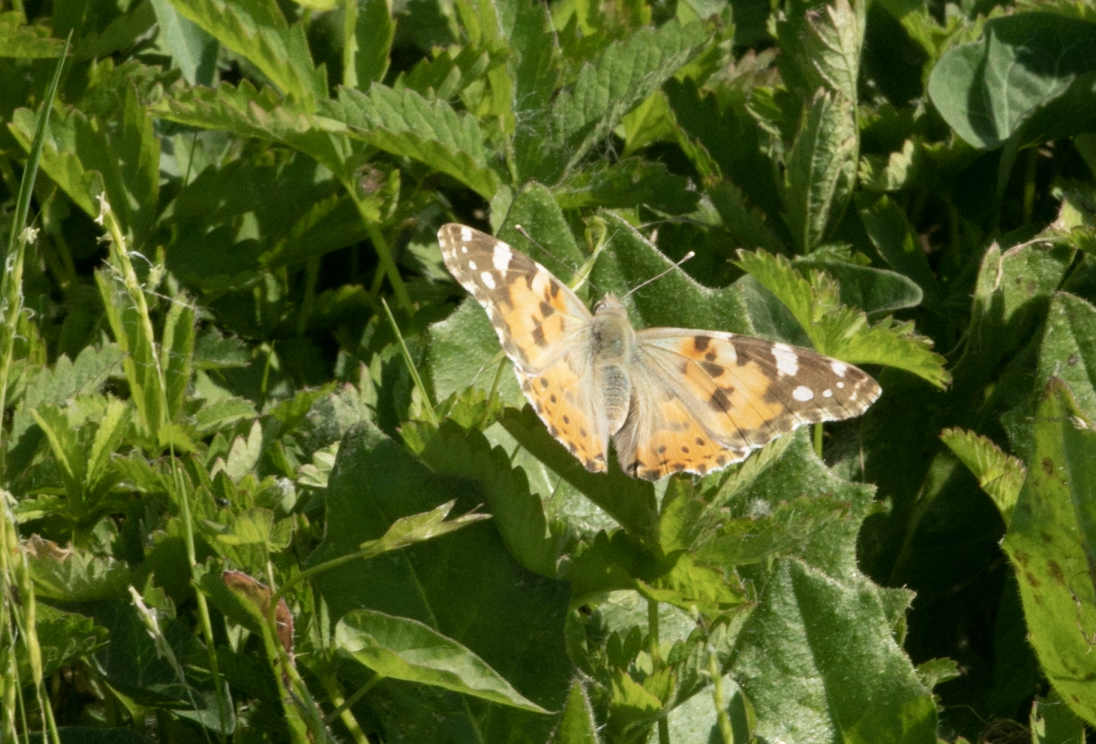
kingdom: Animalia
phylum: Arthropoda
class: Insecta
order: Lepidoptera
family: Nymphalidae
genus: Vanessa
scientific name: Vanessa cardui
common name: Painted lady
